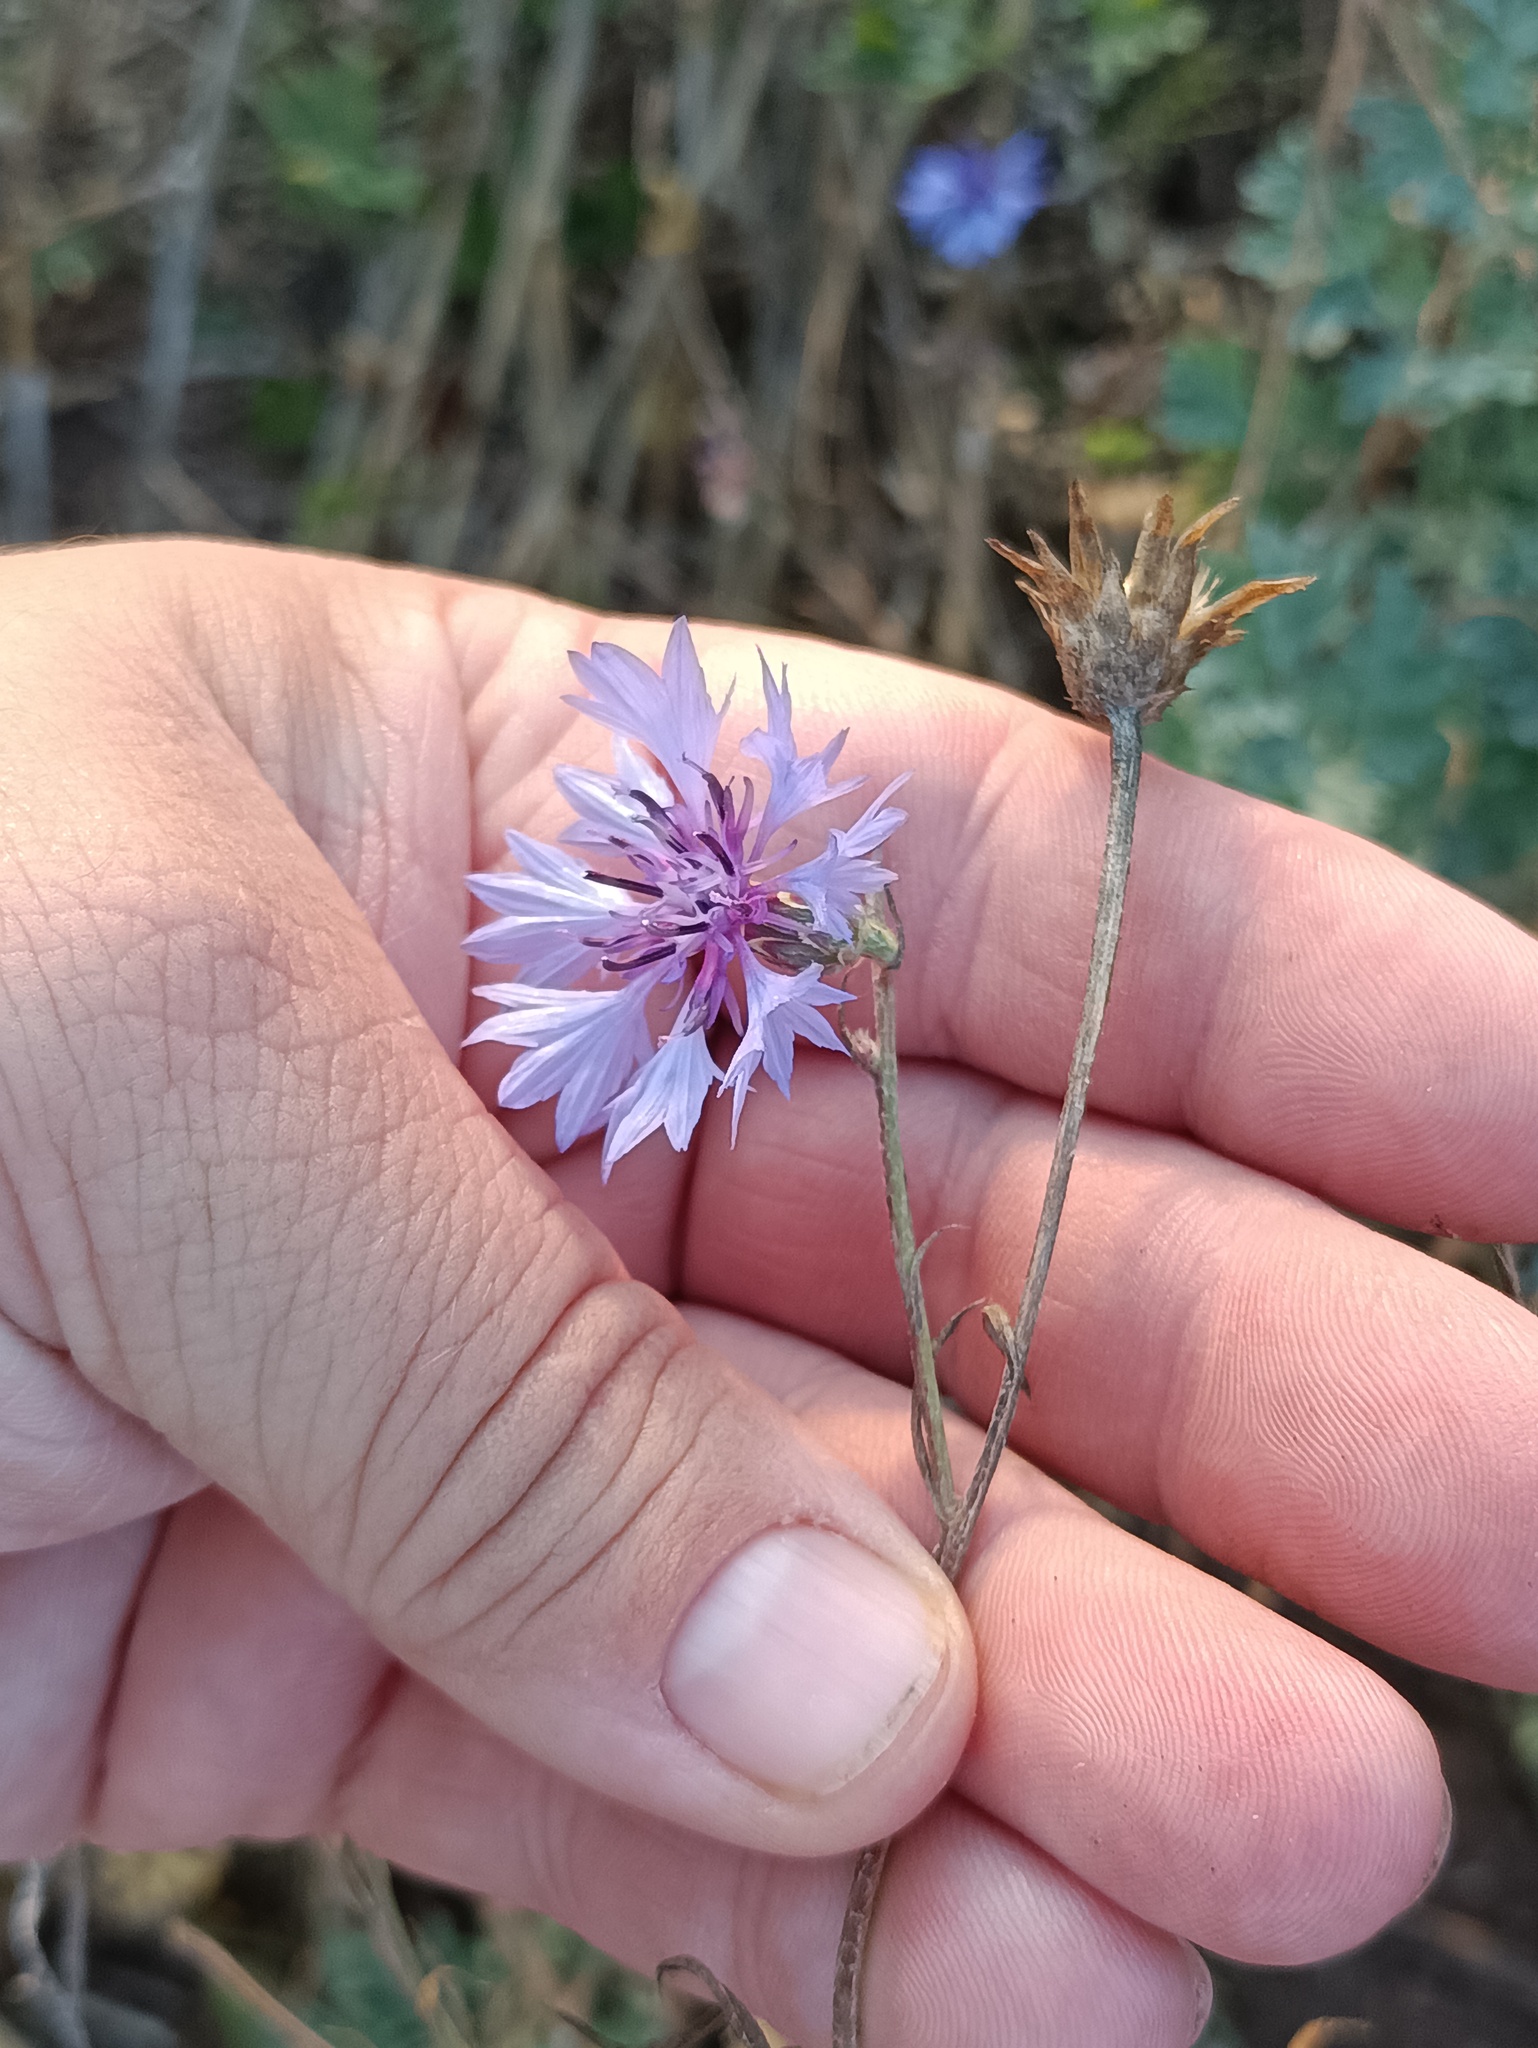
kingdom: Plantae
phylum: Tracheophyta
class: Magnoliopsida
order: Asterales
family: Asteraceae
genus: Centaurea
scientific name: Centaurea cyanus
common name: Cornflower
